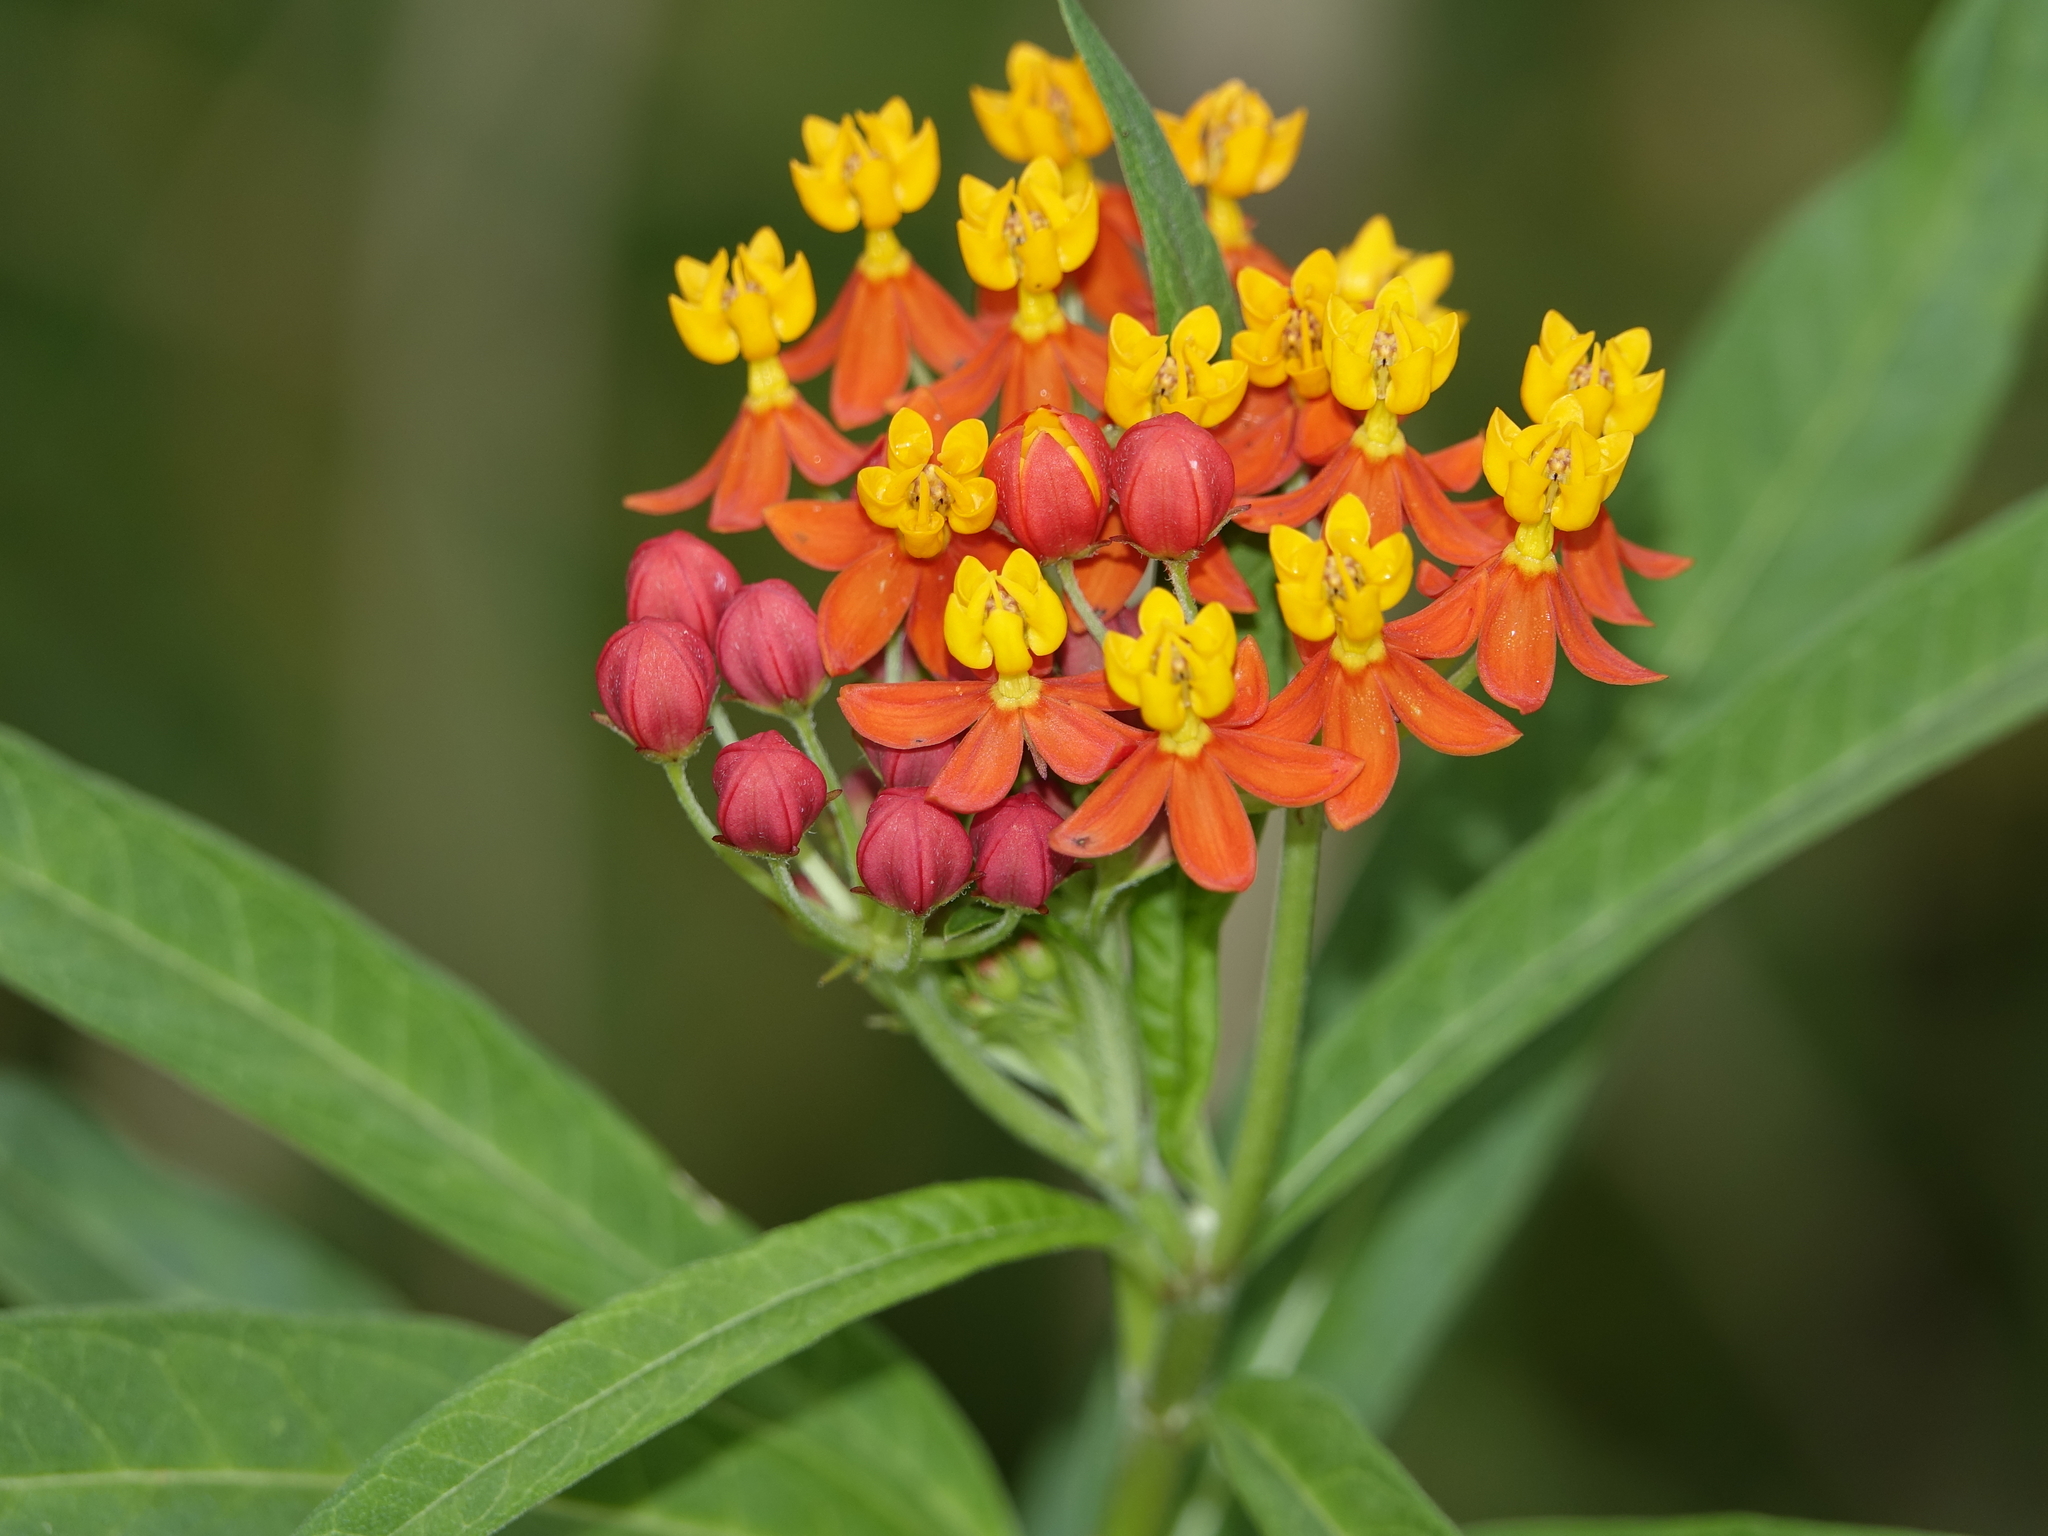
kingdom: Plantae
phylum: Tracheophyta
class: Magnoliopsida
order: Gentianales
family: Apocynaceae
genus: Asclepias
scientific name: Asclepias curassavica
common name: Bloodflower
